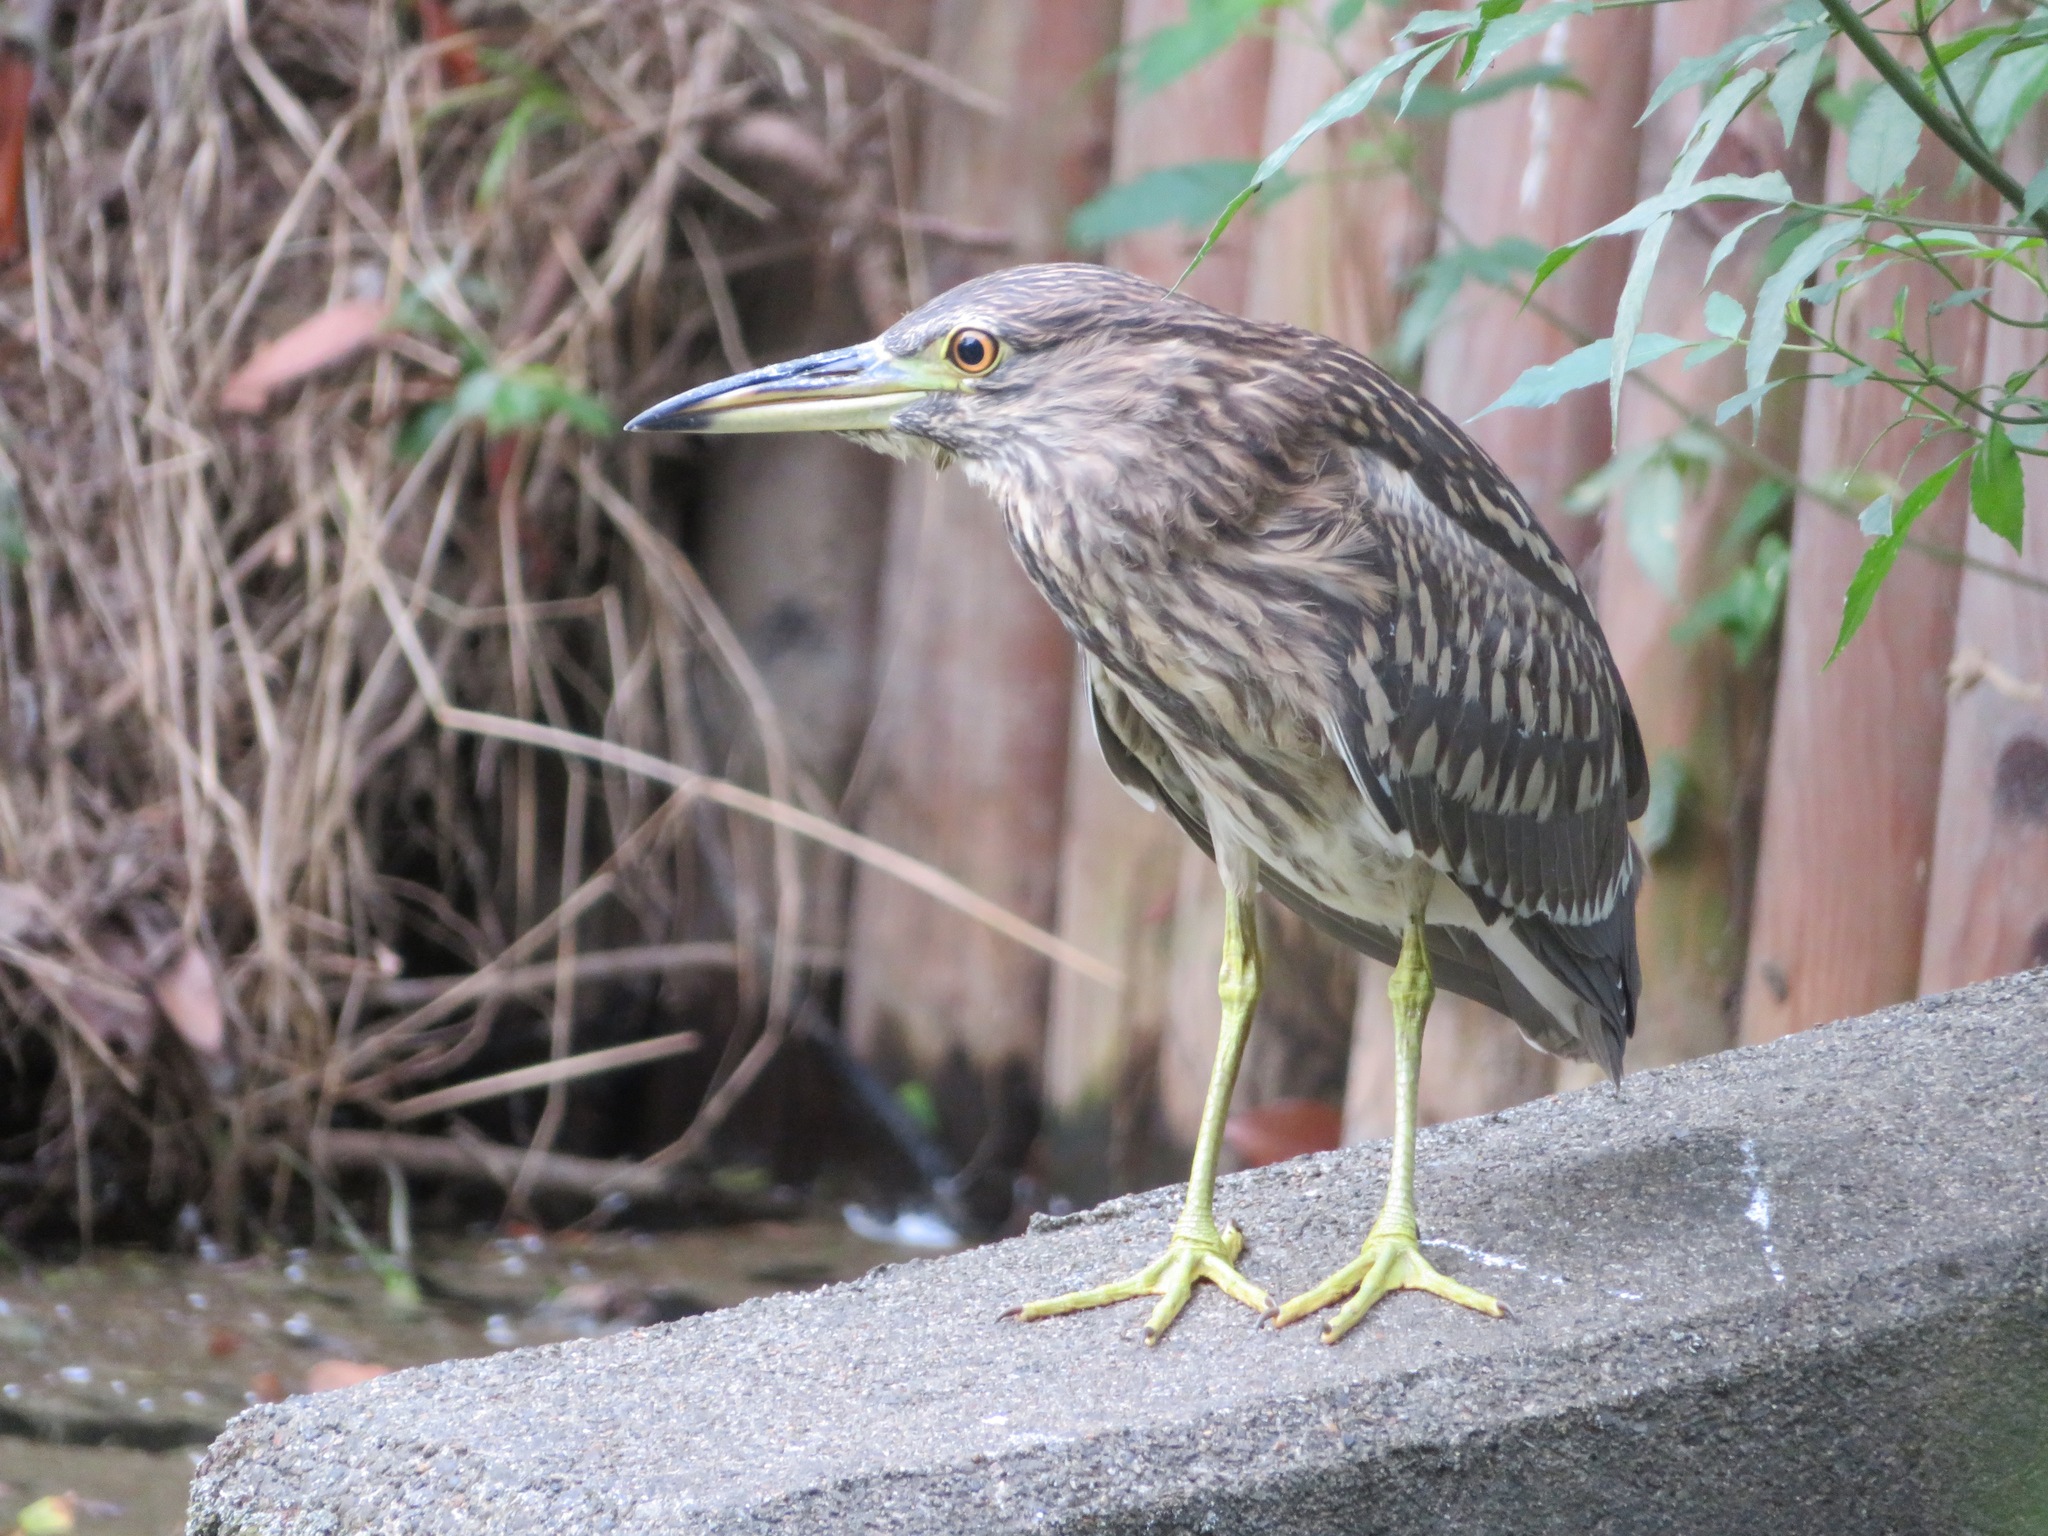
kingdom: Animalia
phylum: Chordata
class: Aves
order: Pelecaniformes
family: Ardeidae
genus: Nycticorax
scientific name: Nycticorax nycticorax
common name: Black-crowned night heron
